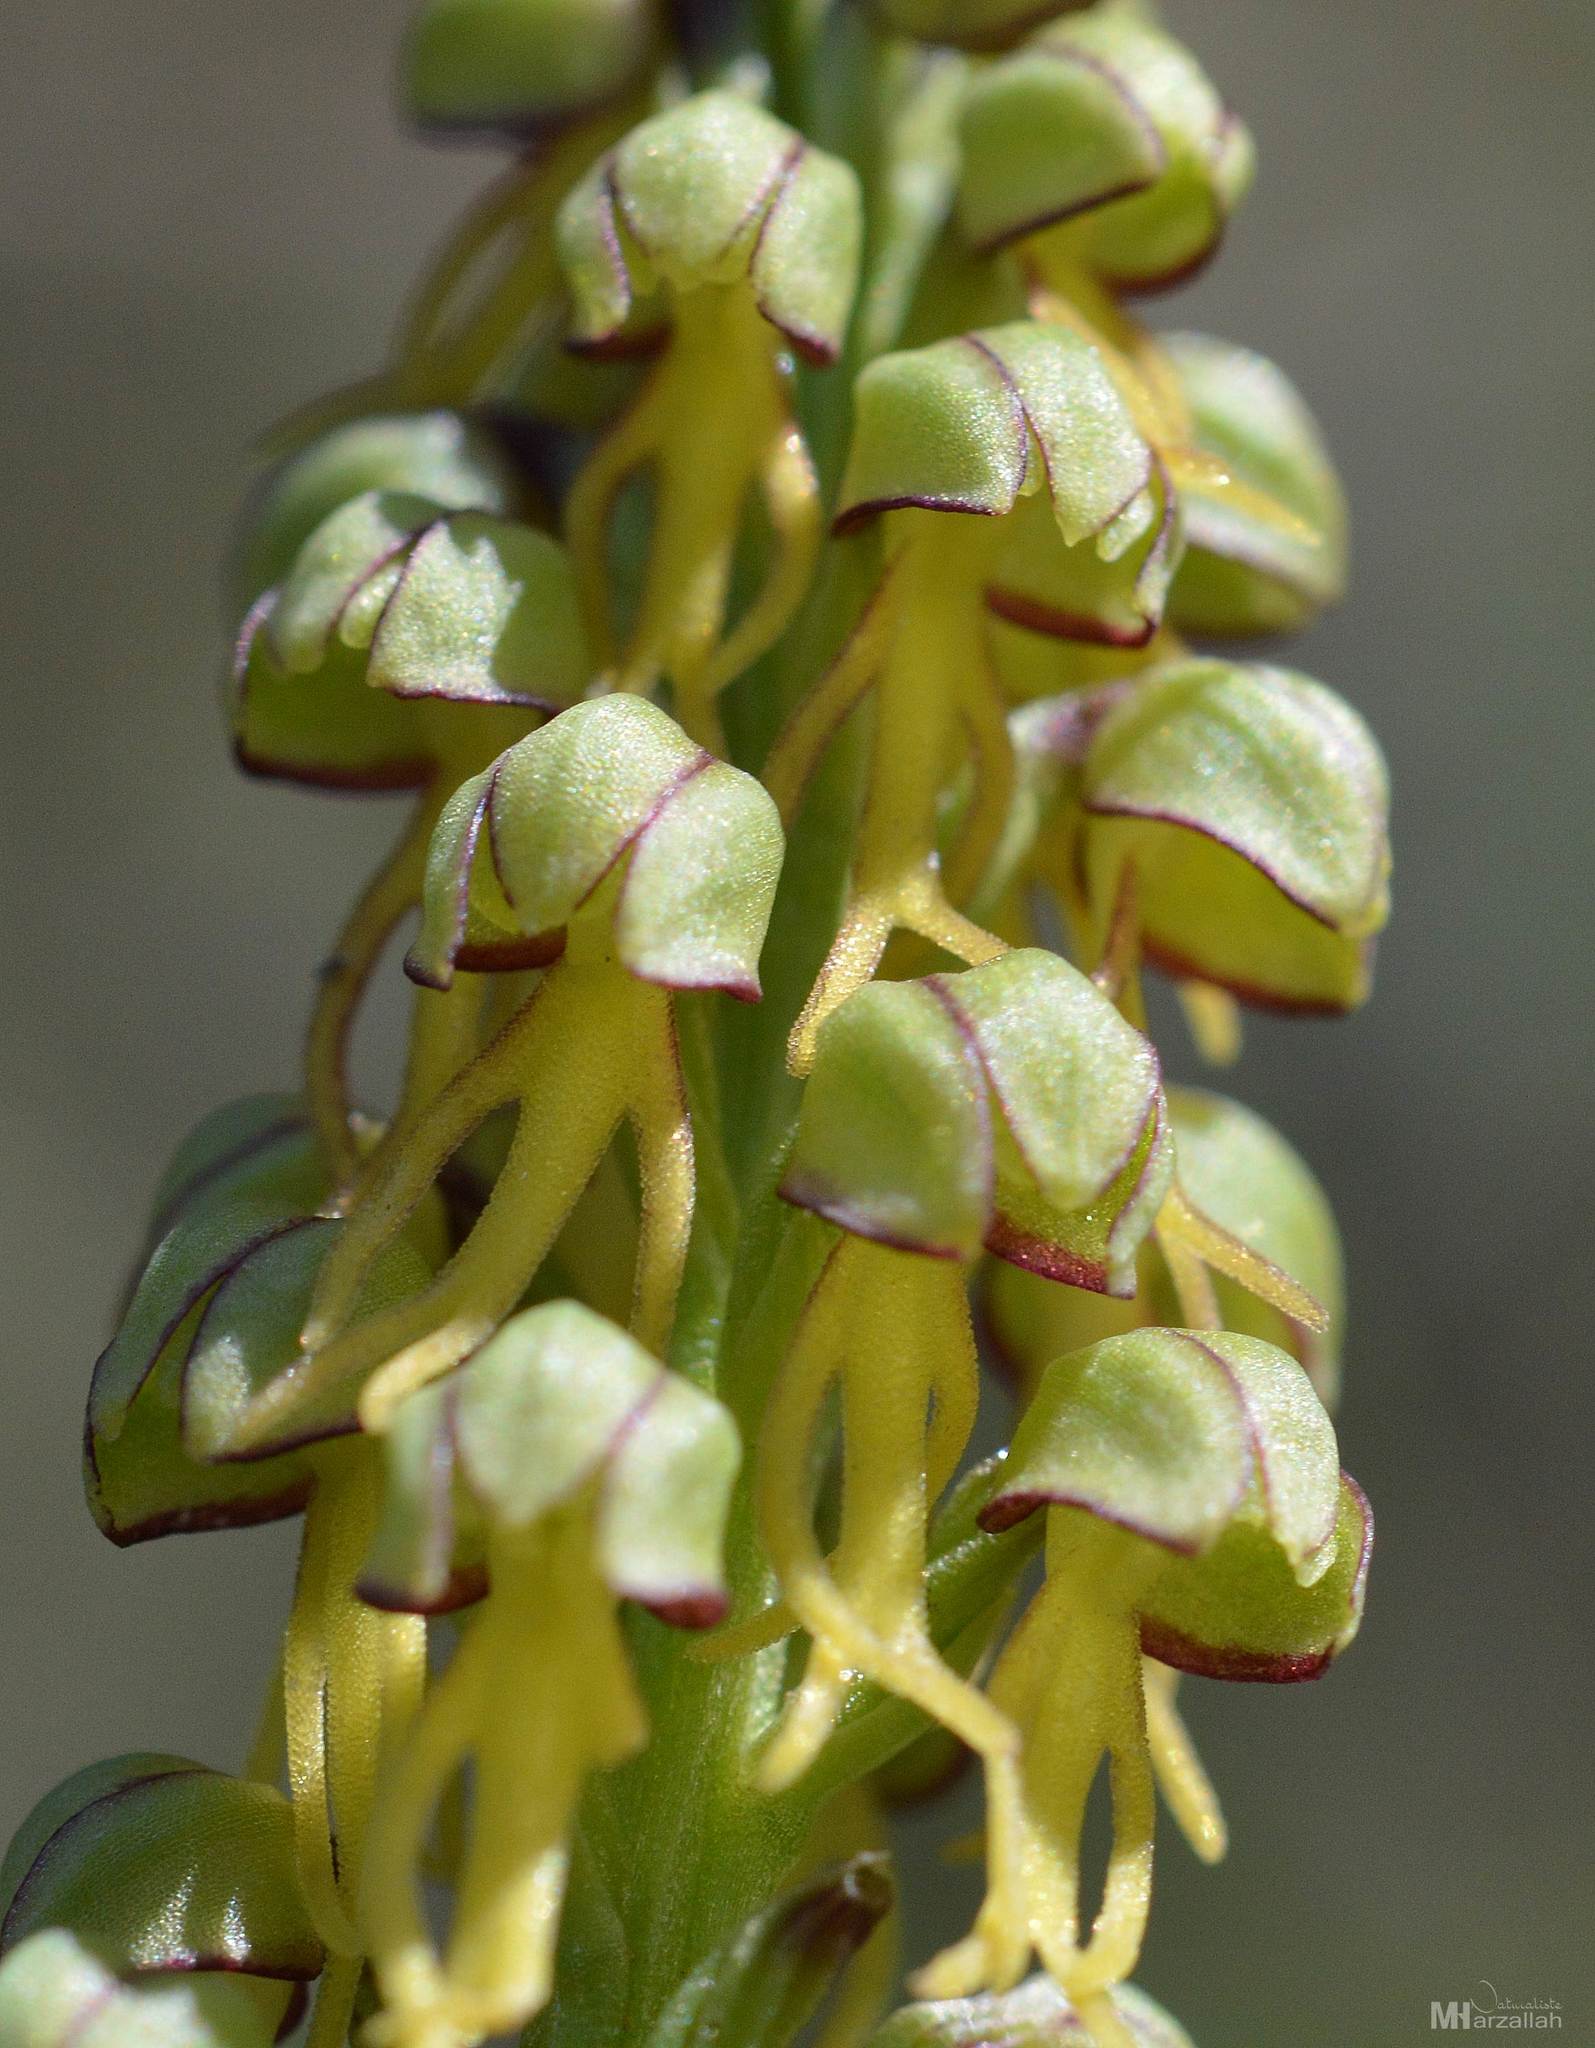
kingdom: Plantae
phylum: Tracheophyta
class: Liliopsida
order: Asparagales
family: Orchidaceae
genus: Orchis
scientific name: Orchis anthropophora
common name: Man orchid
